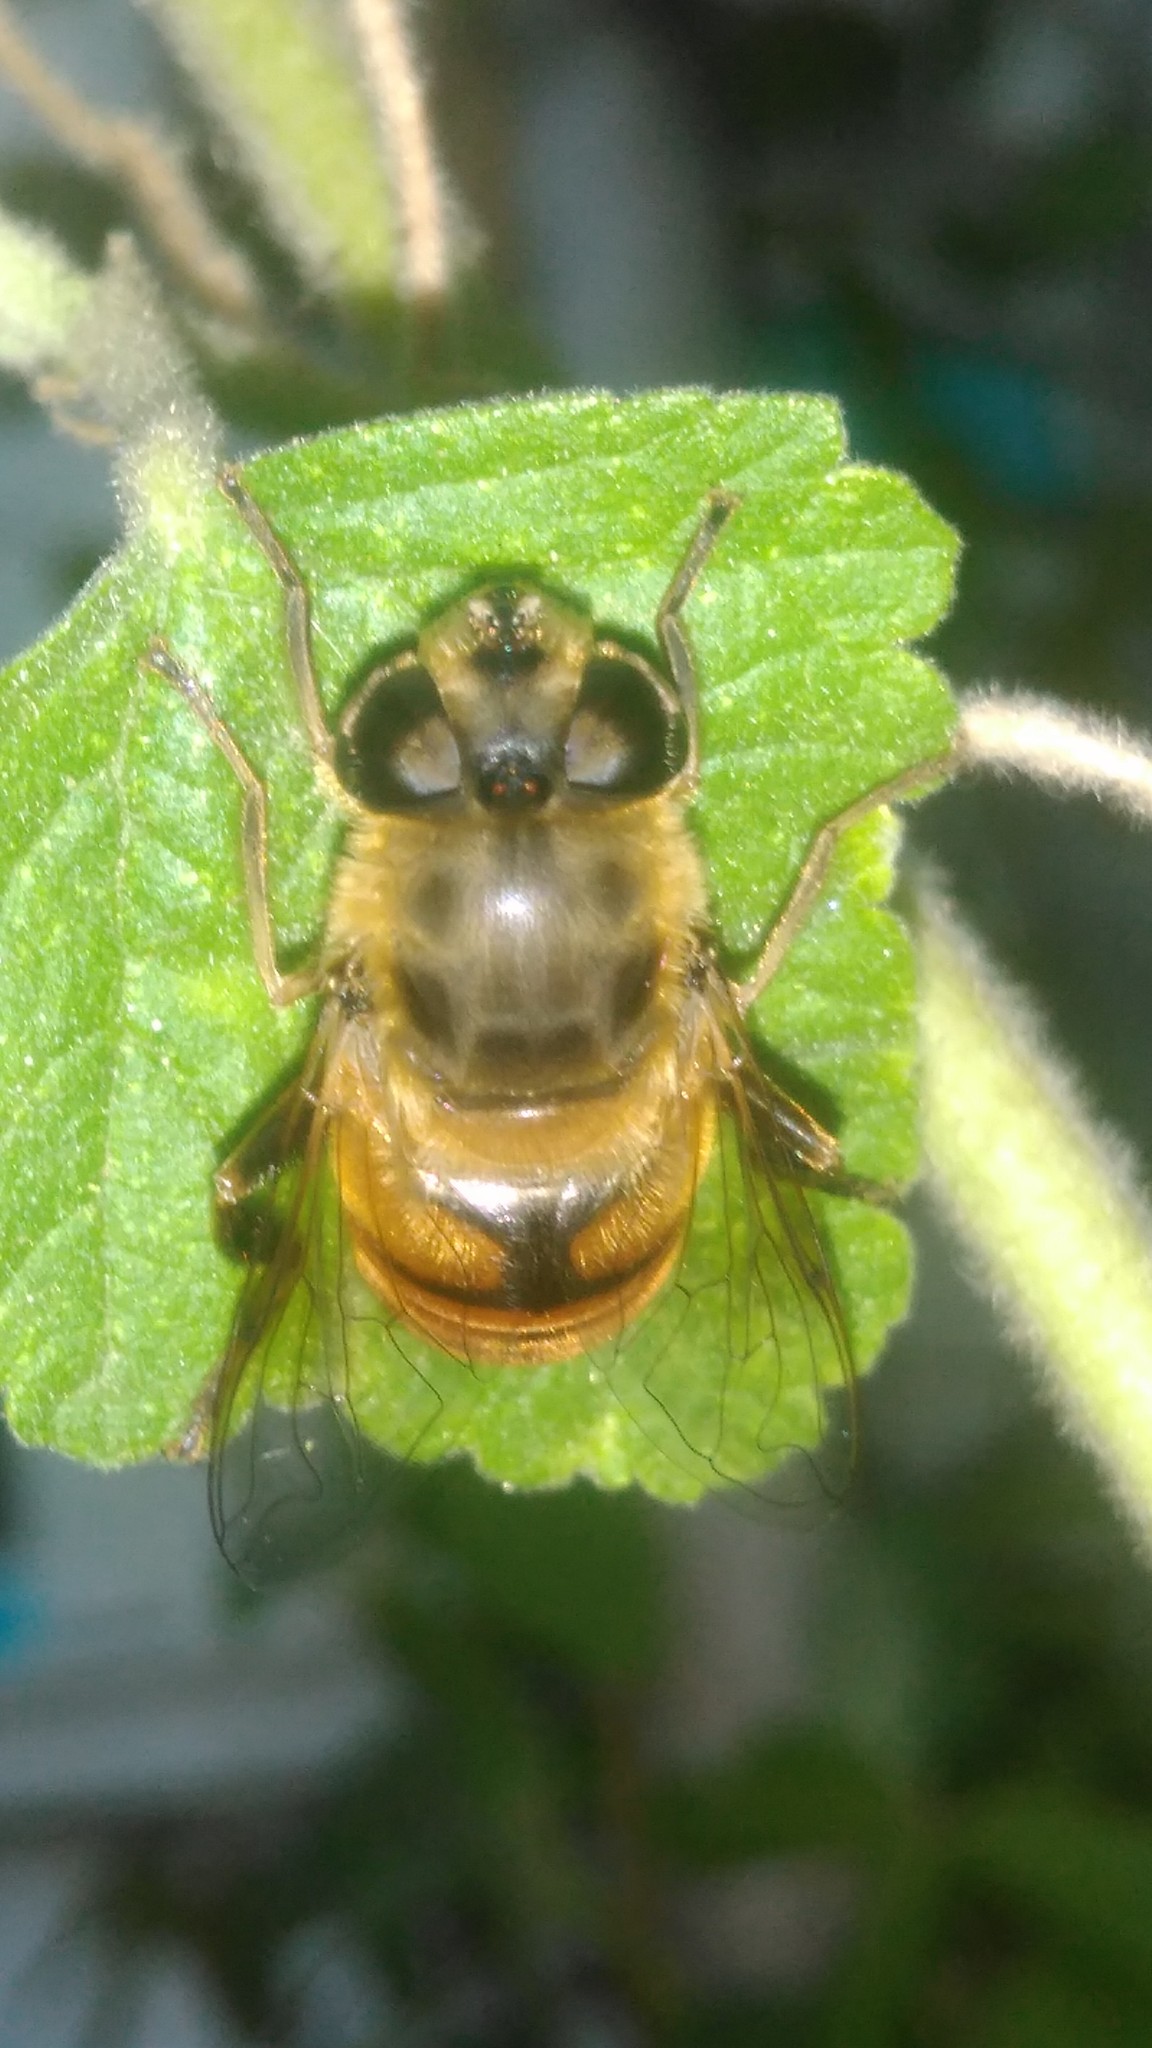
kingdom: Animalia
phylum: Arthropoda
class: Insecta
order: Diptera
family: Syrphidae
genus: Eristalis
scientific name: Eristalis tenax
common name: Drone fly
